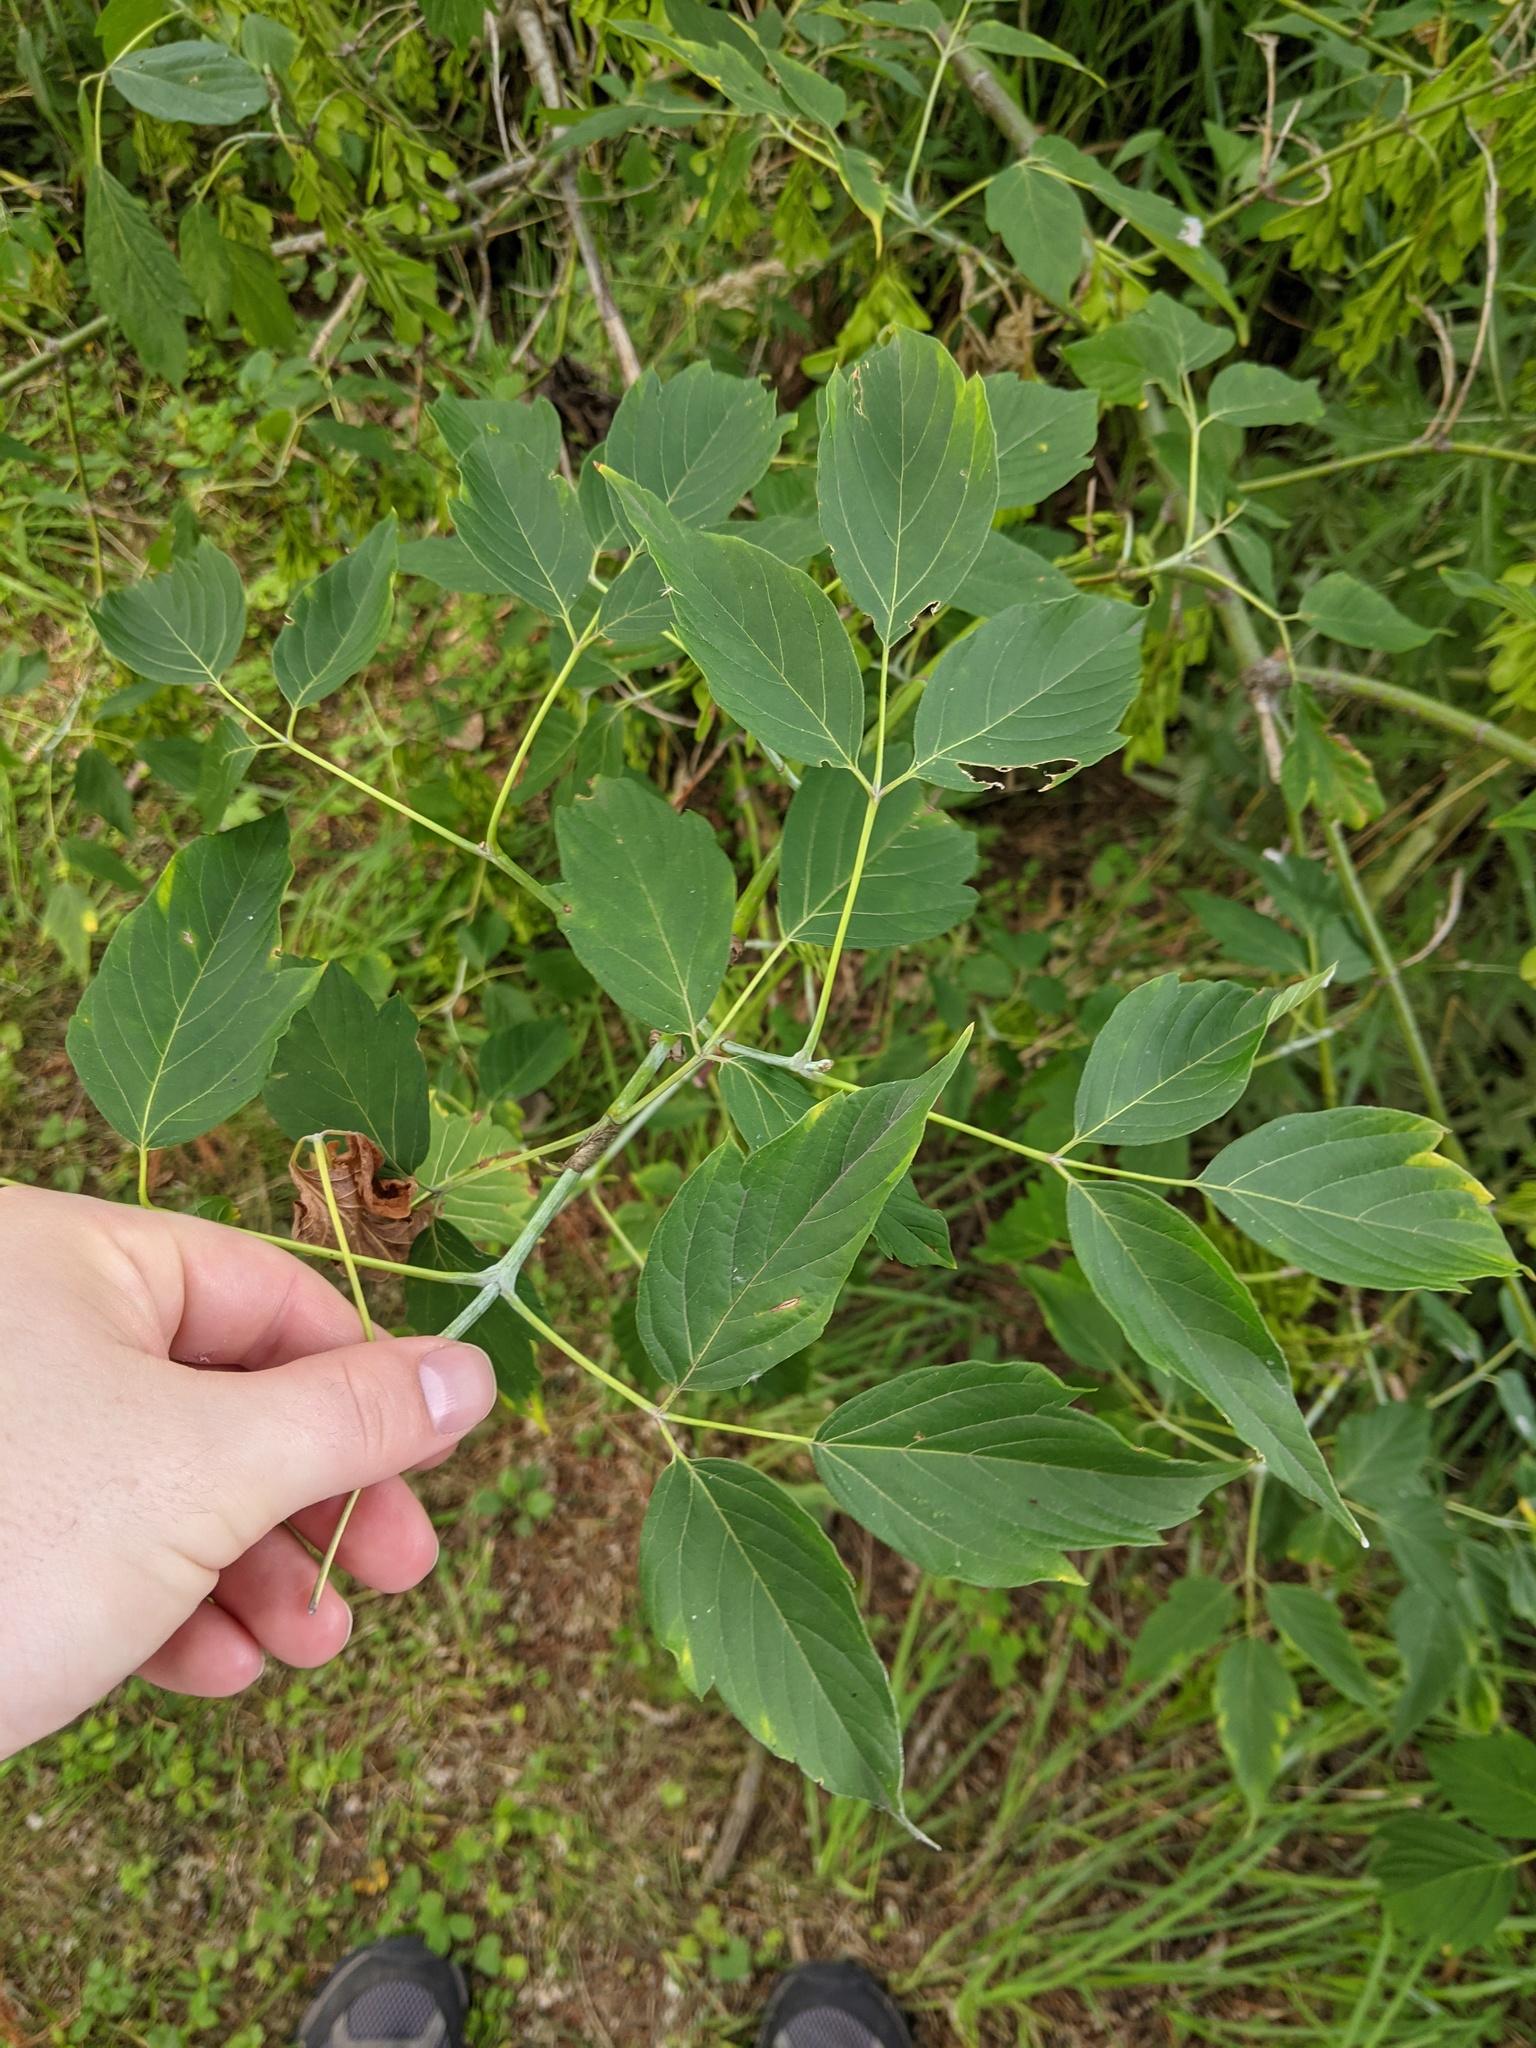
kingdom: Plantae
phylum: Tracheophyta
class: Magnoliopsida
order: Sapindales
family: Sapindaceae
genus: Acer
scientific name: Acer negundo
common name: Ashleaf maple
